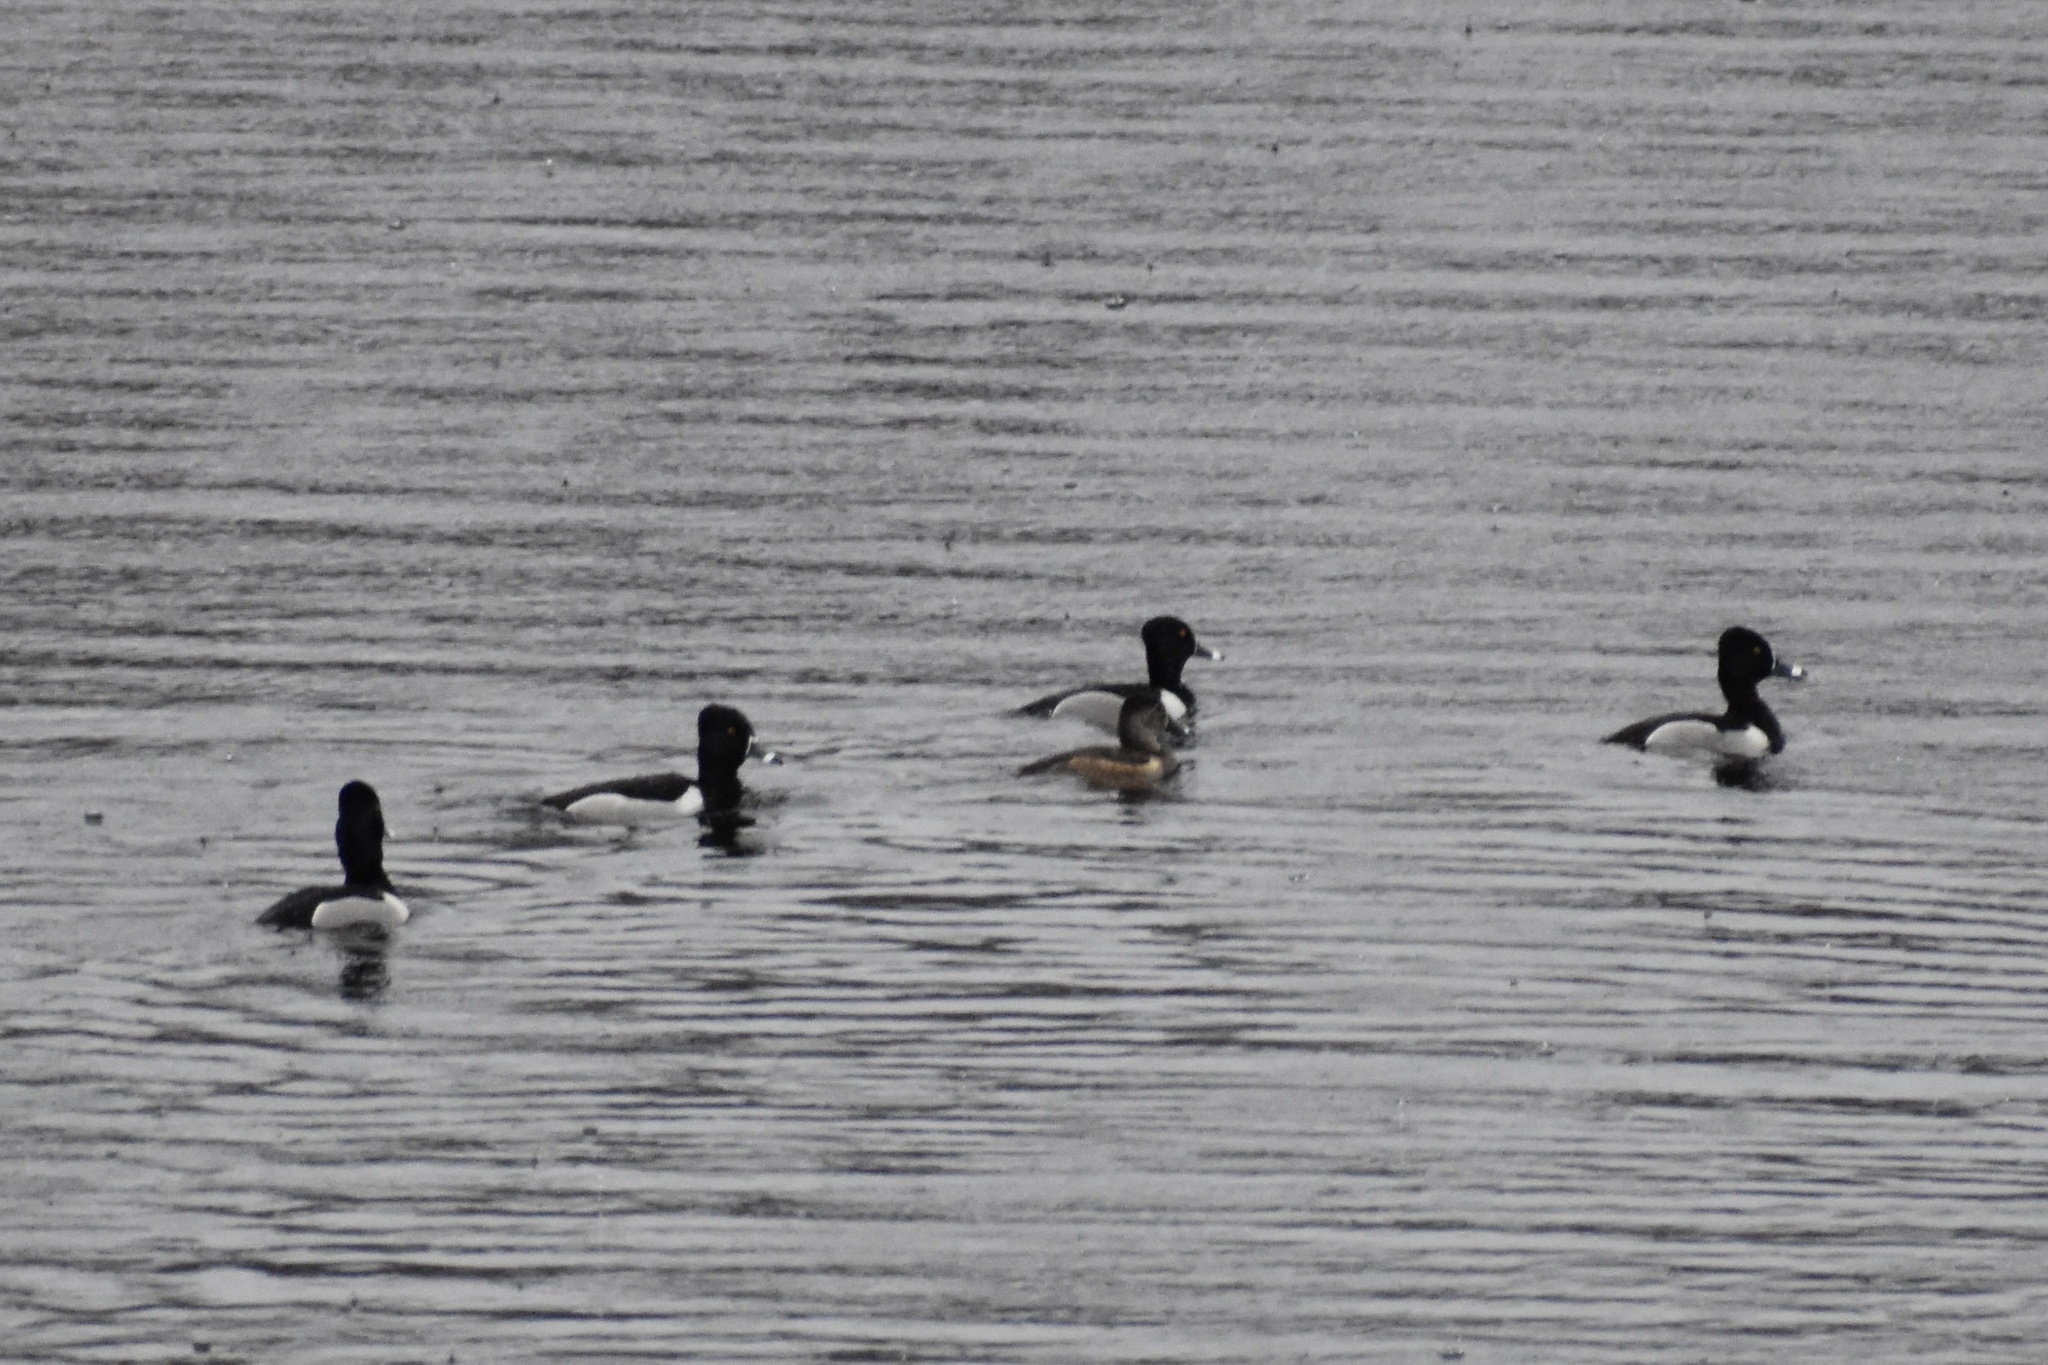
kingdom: Animalia
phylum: Chordata
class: Aves
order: Anseriformes
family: Anatidae
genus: Aythya
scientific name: Aythya collaris
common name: Ring-necked duck
